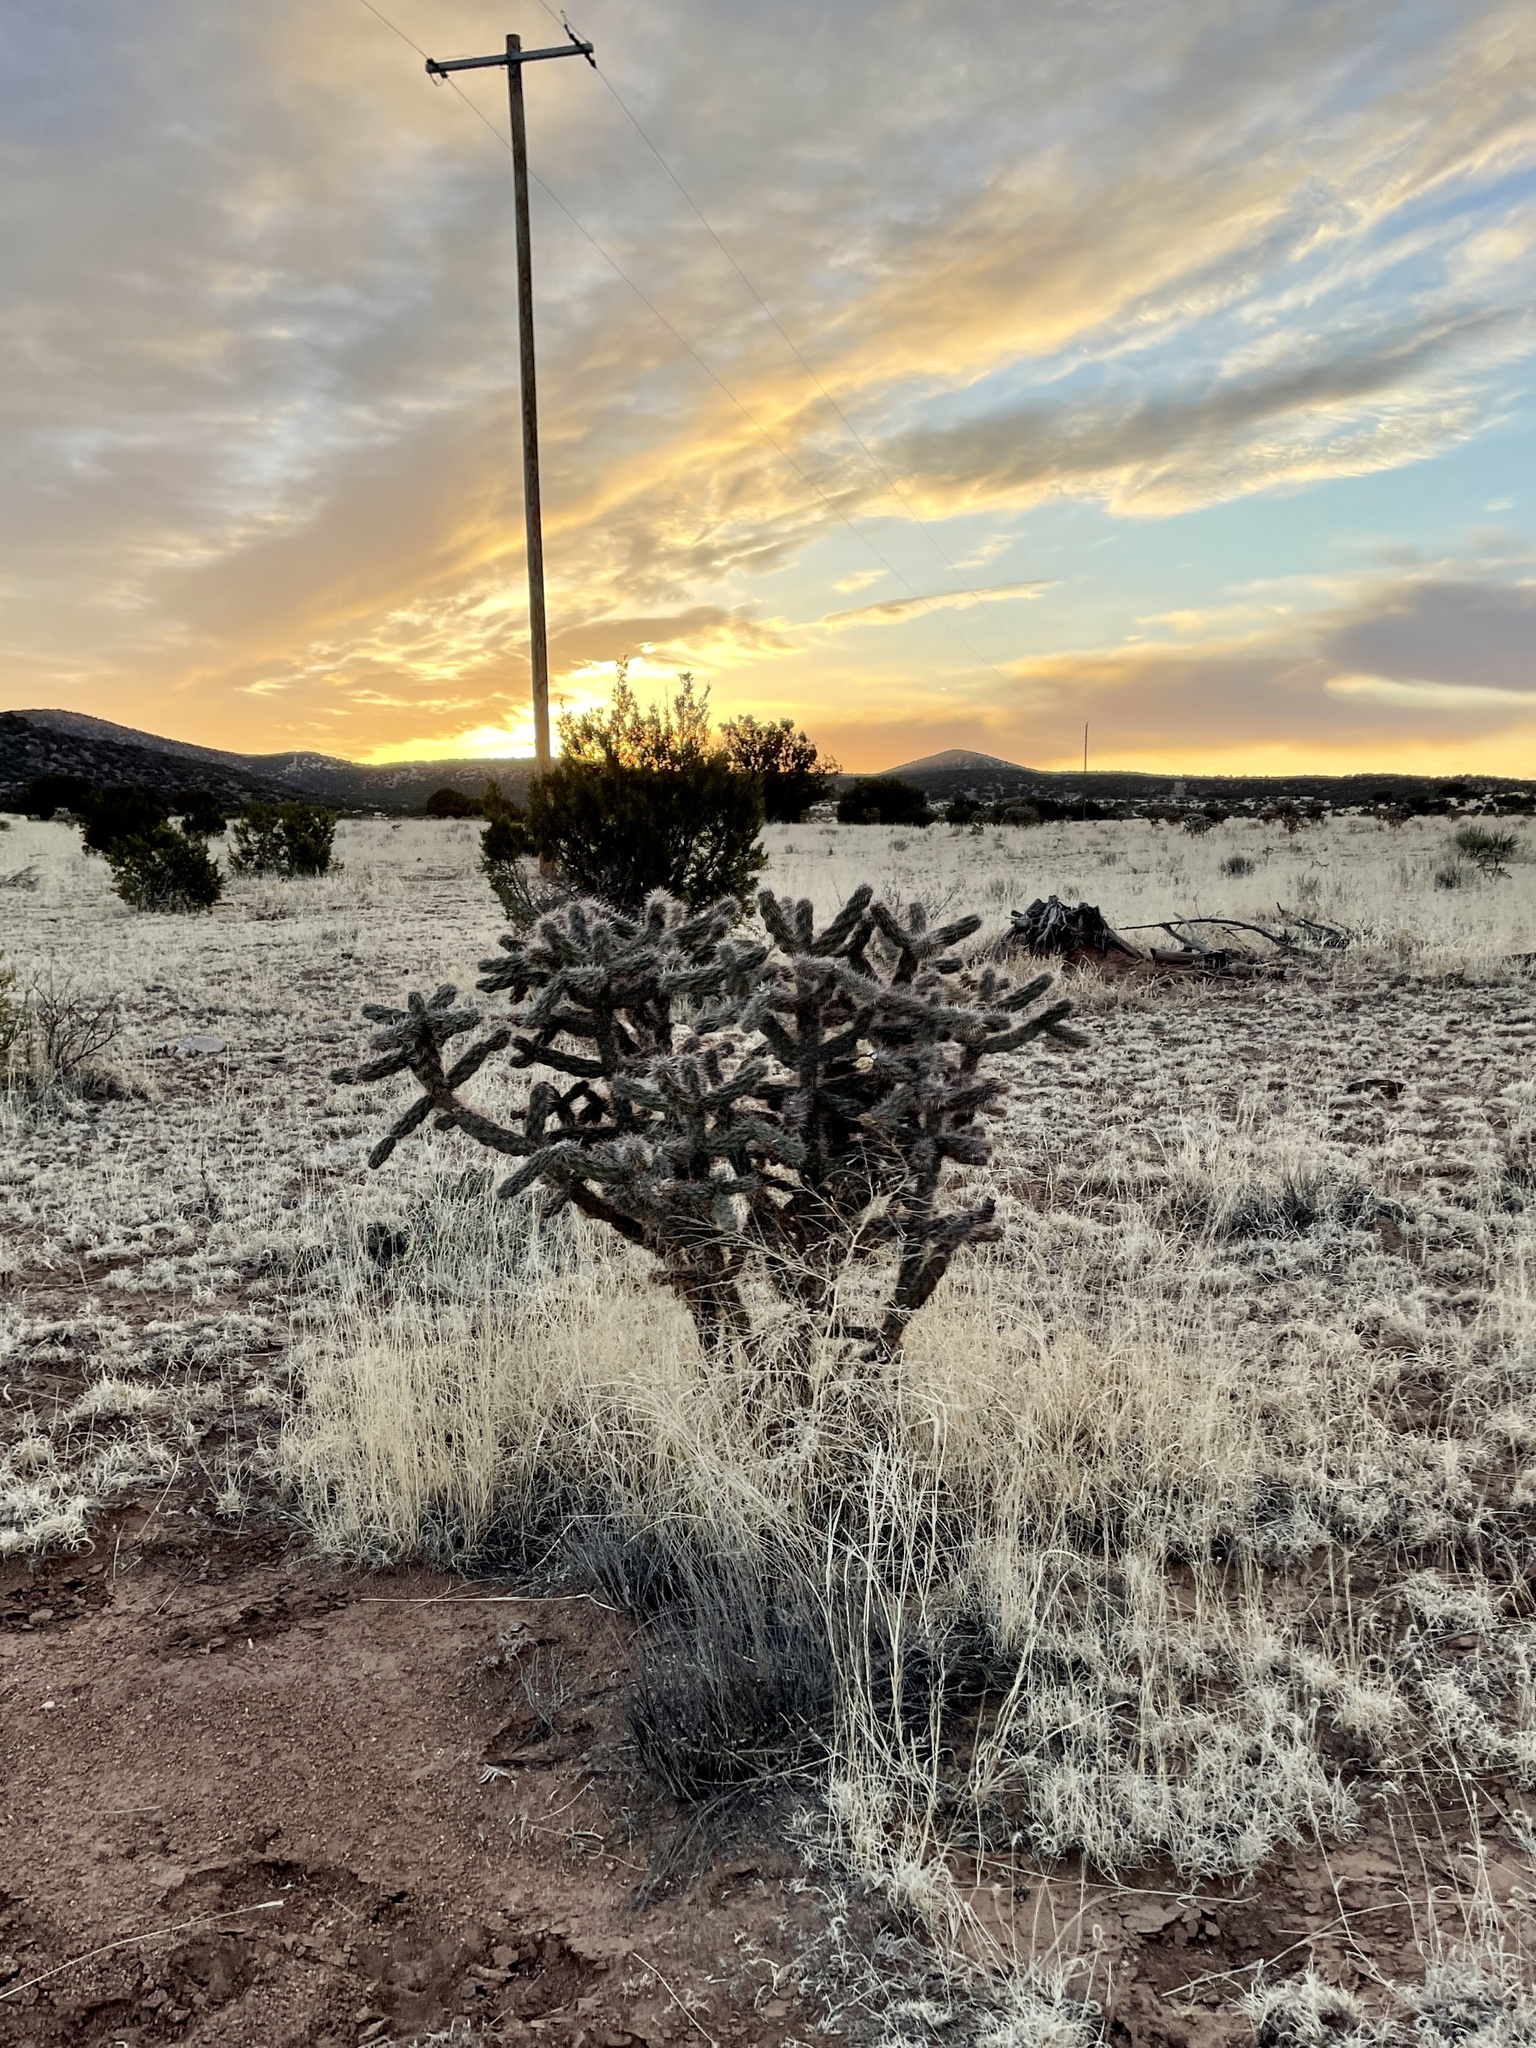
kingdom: Plantae
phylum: Tracheophyta
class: Magnoliopsida
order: Caryophyllales
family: Cactaceae
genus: Cylindropuntia
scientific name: Cylindropuntia imbricata
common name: Candelabrum cactus
